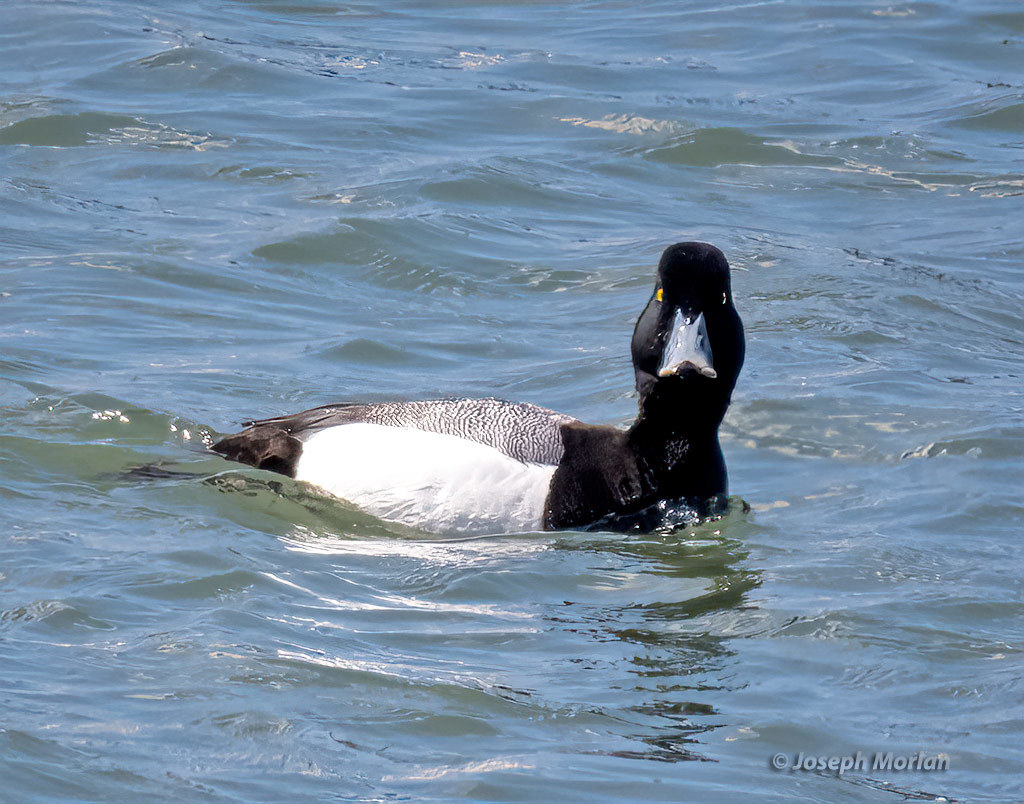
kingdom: Animalia
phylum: Chordata
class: Aves
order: Anseriformes
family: Anatidae
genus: Aythya
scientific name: Aythya marila
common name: Greater scaup
